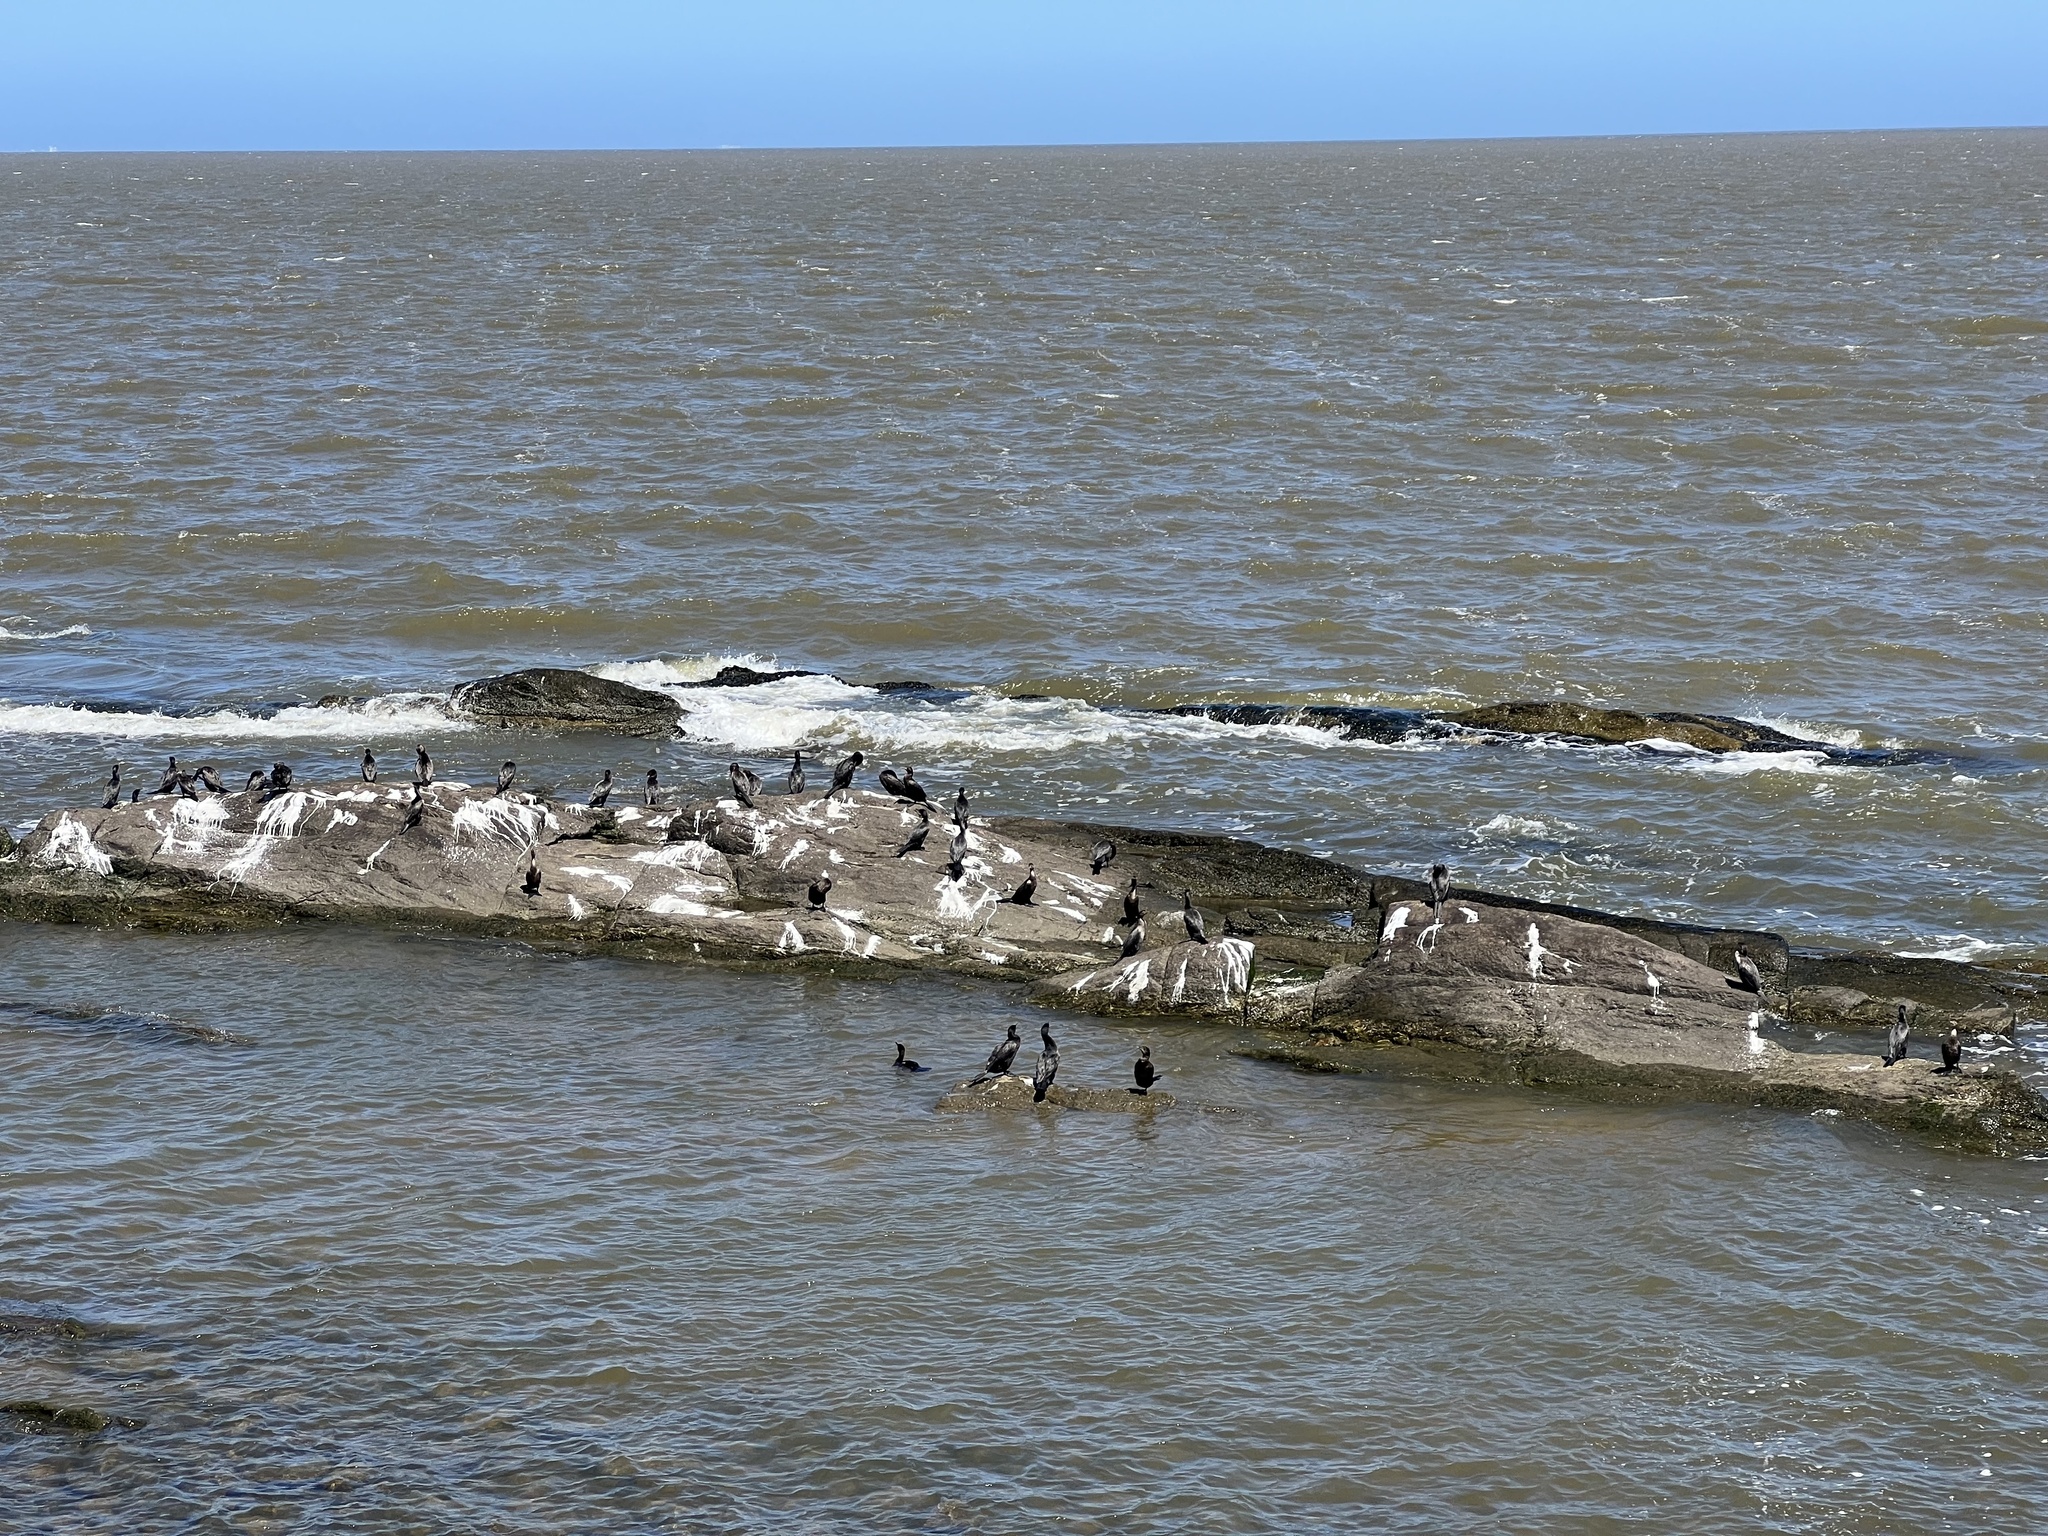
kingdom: Animalia
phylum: Chordata
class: Aves
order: Suliformes
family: Phalacrocoracidae
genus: Phalacrocorax
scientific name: Phalacrocorax brasilianus
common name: Neotropic cormorant
